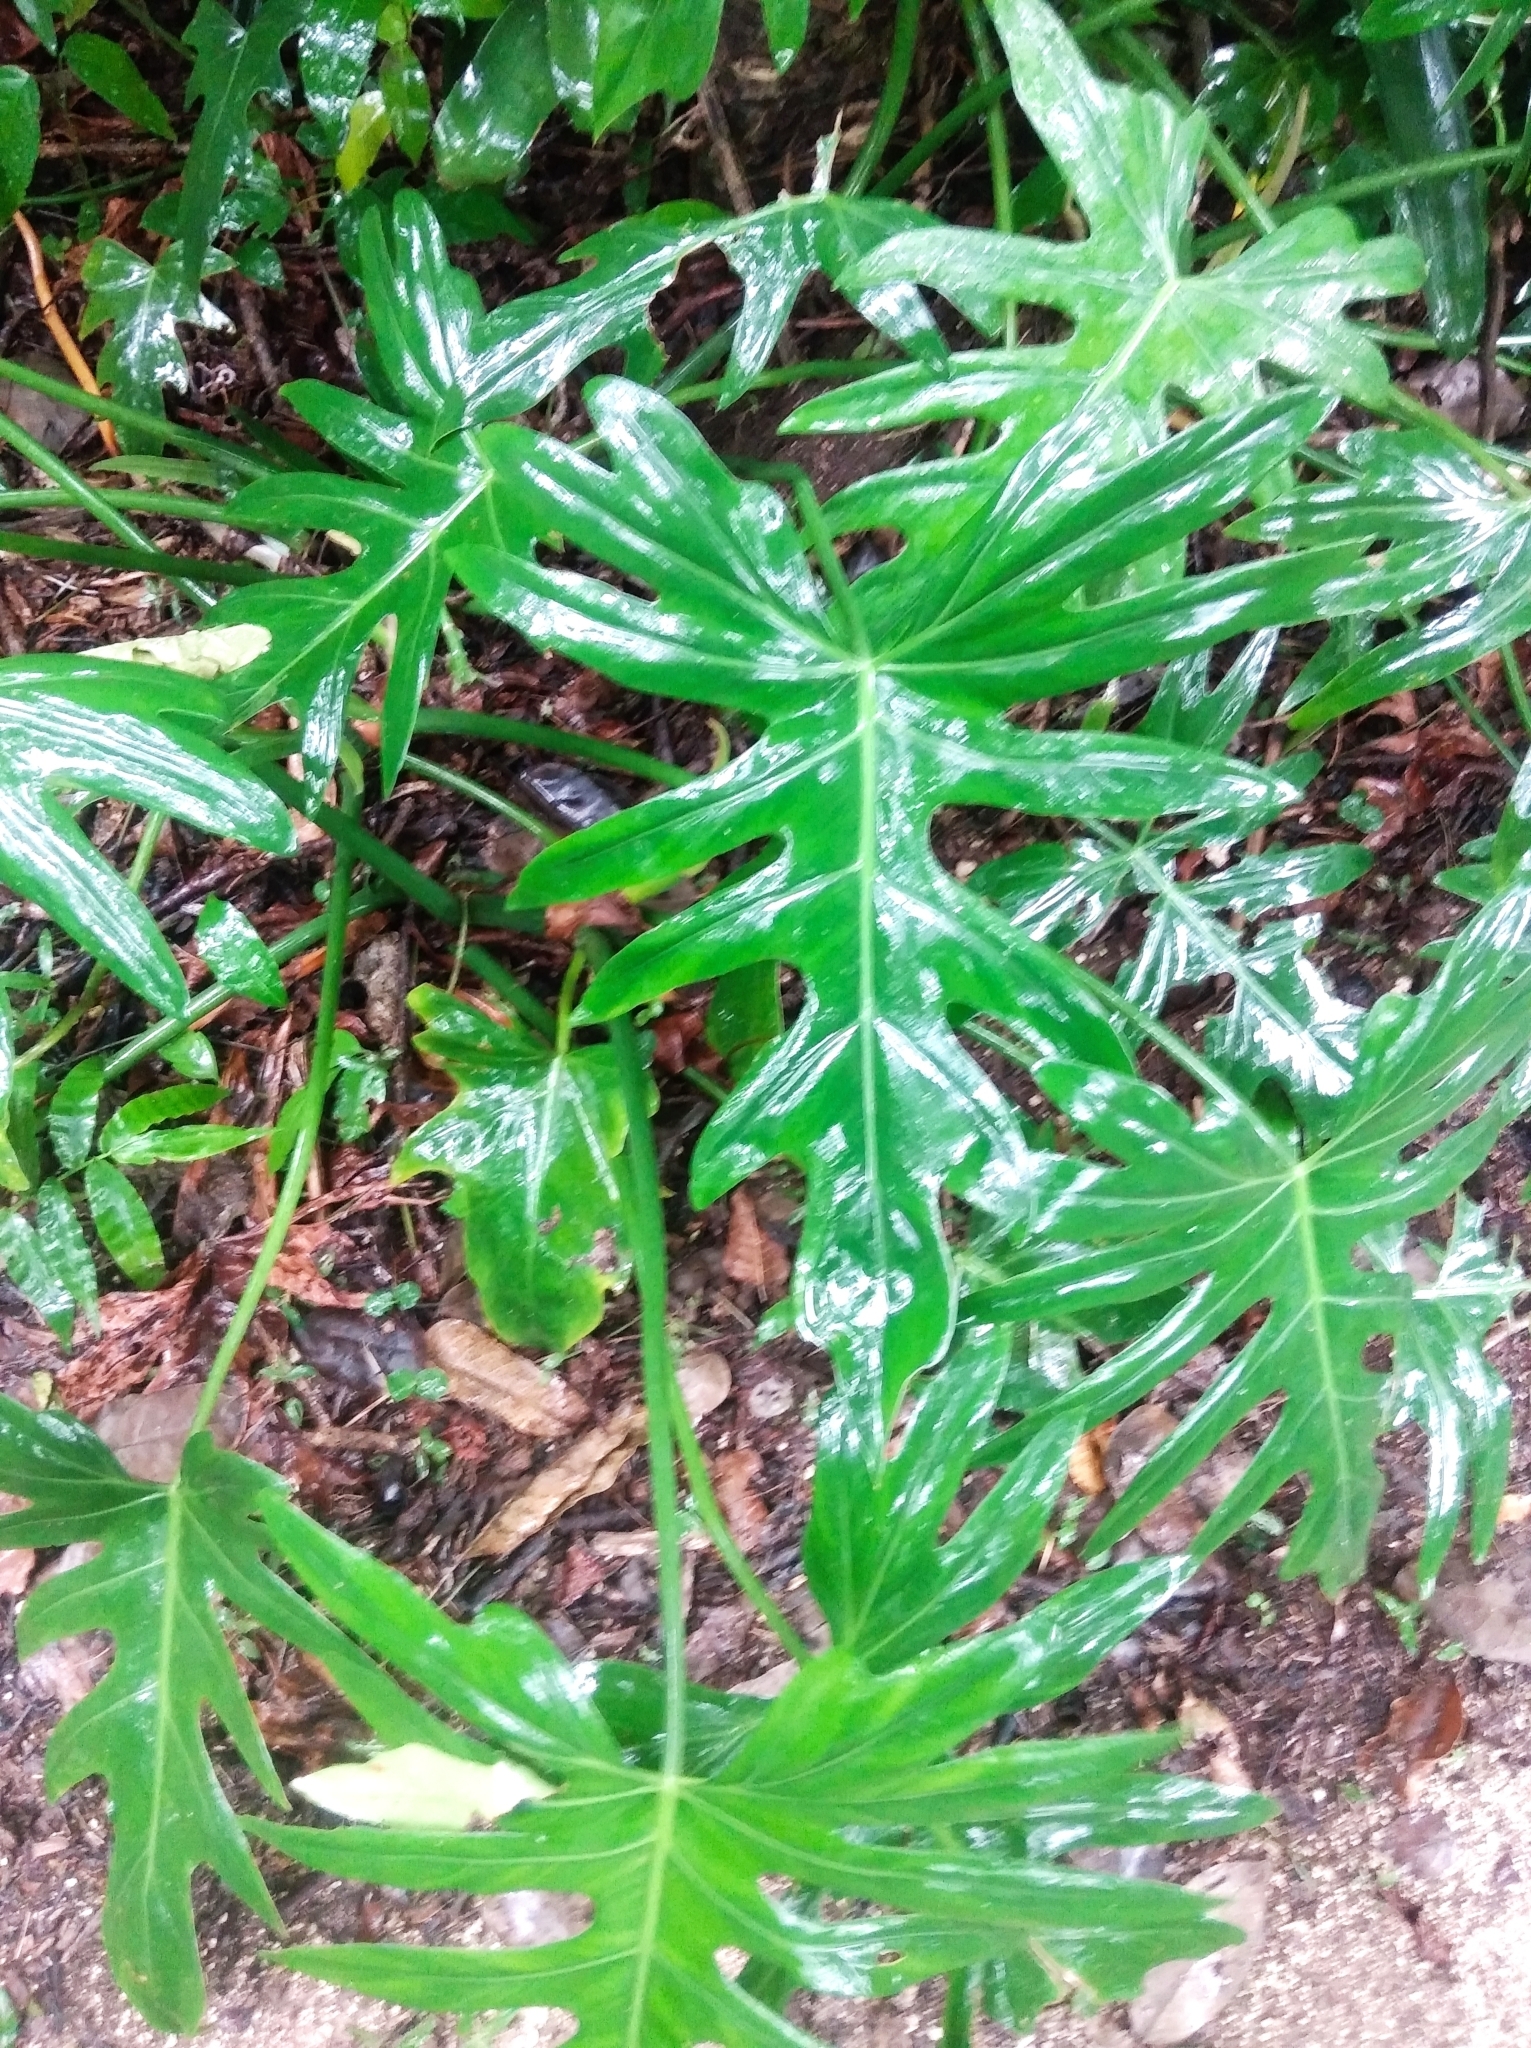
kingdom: Plantae
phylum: Tracheophyta
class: Liliopsida
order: Alismatales
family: Araceae
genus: Philodendron
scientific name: Philodendron radiatum
